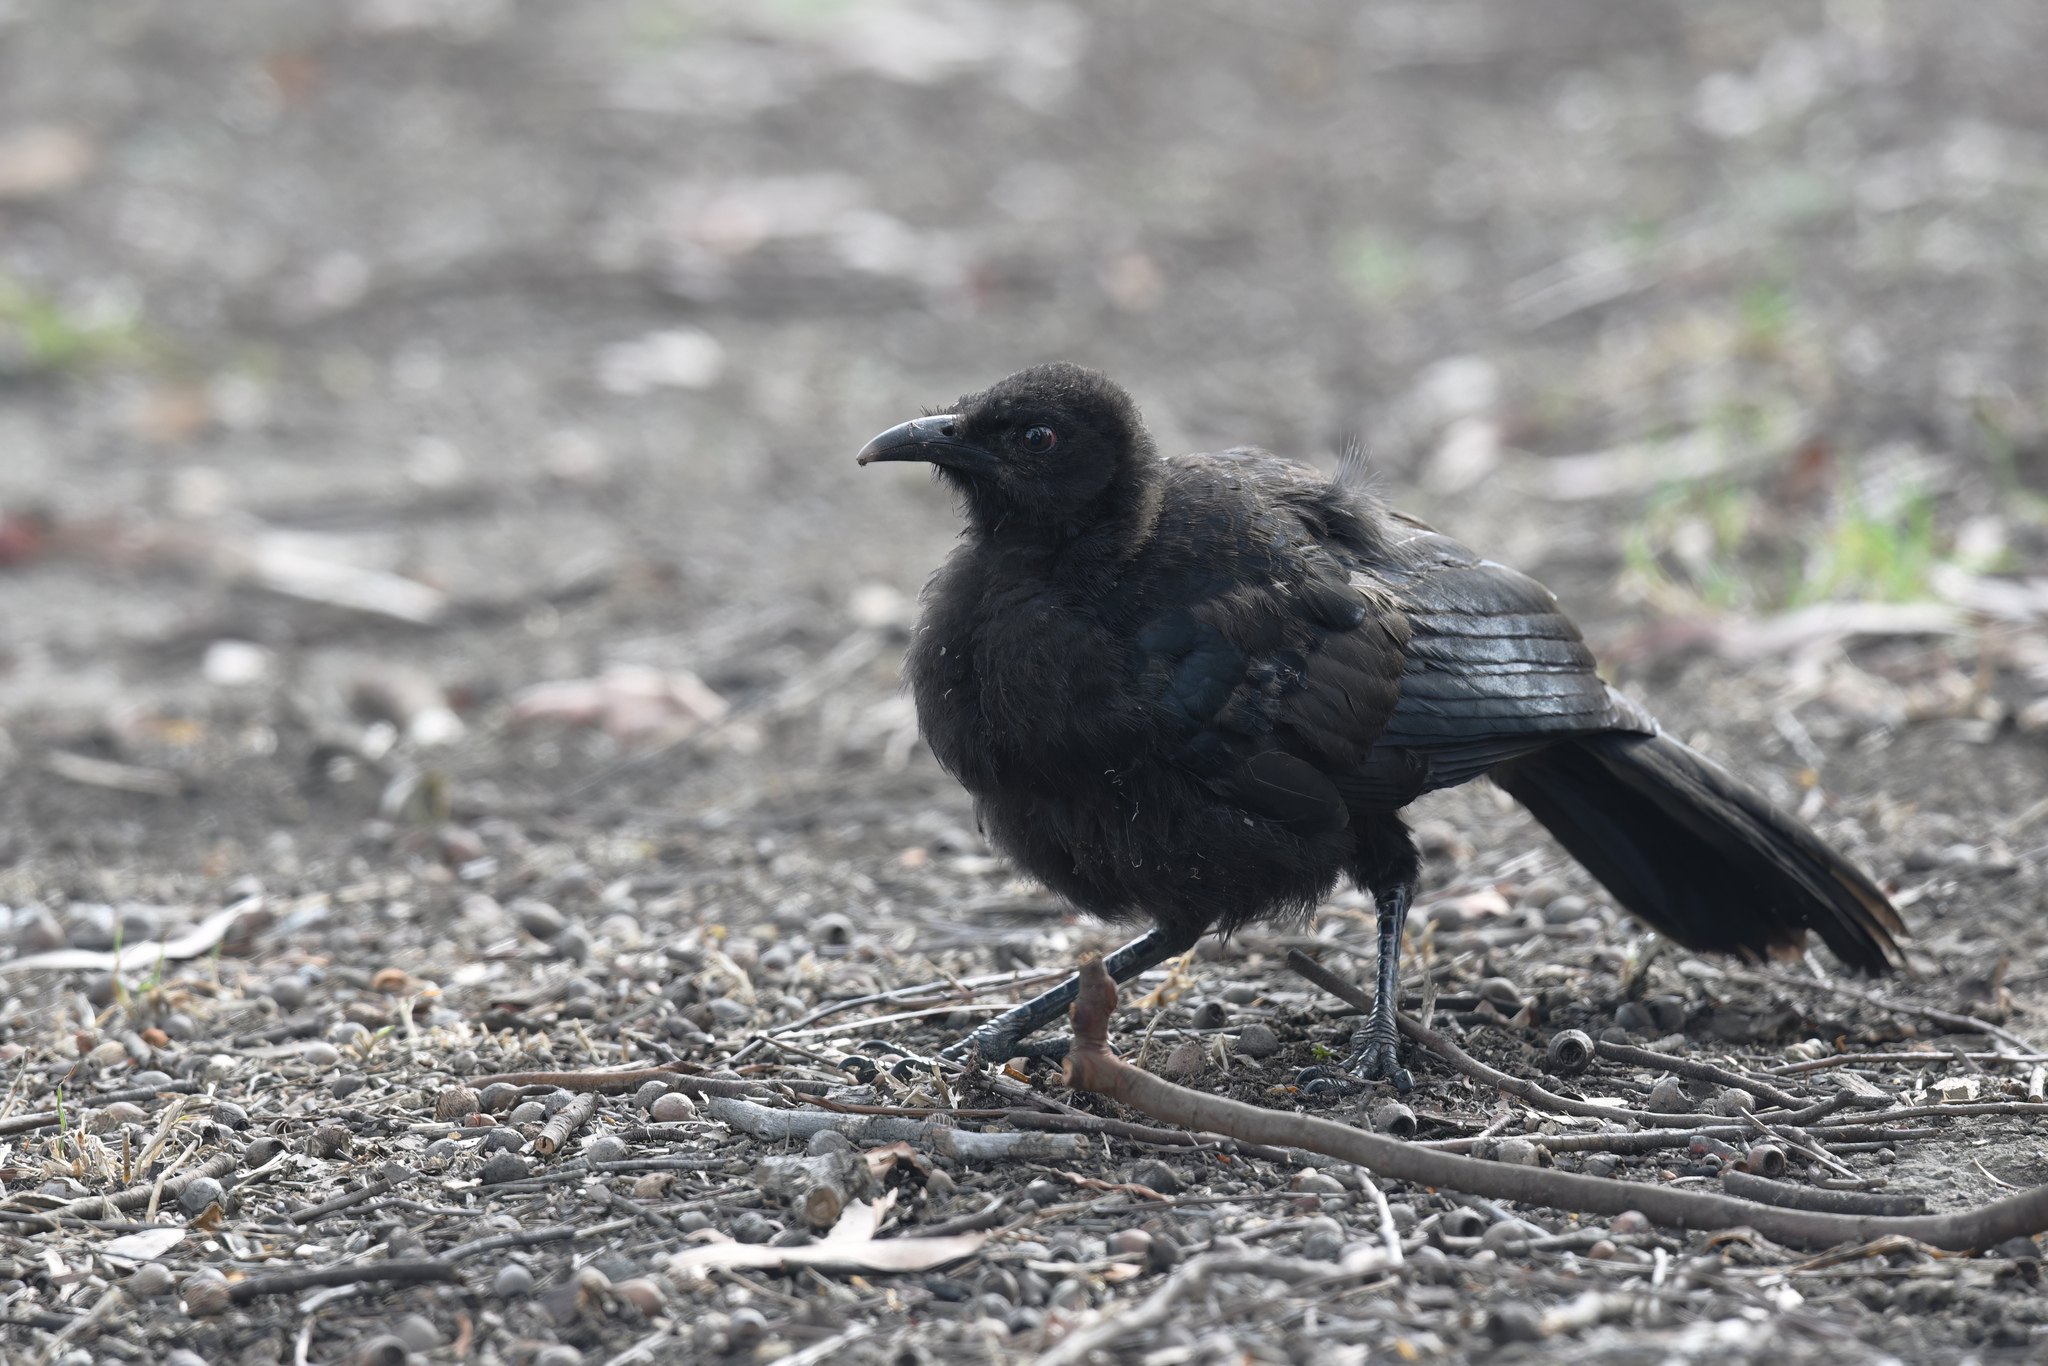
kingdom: Animalia
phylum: Chordata
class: Aves
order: Passeriformes
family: Corcoracidae
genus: Corcorax
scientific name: Corcorax melanoramphos
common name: White-winged chough
